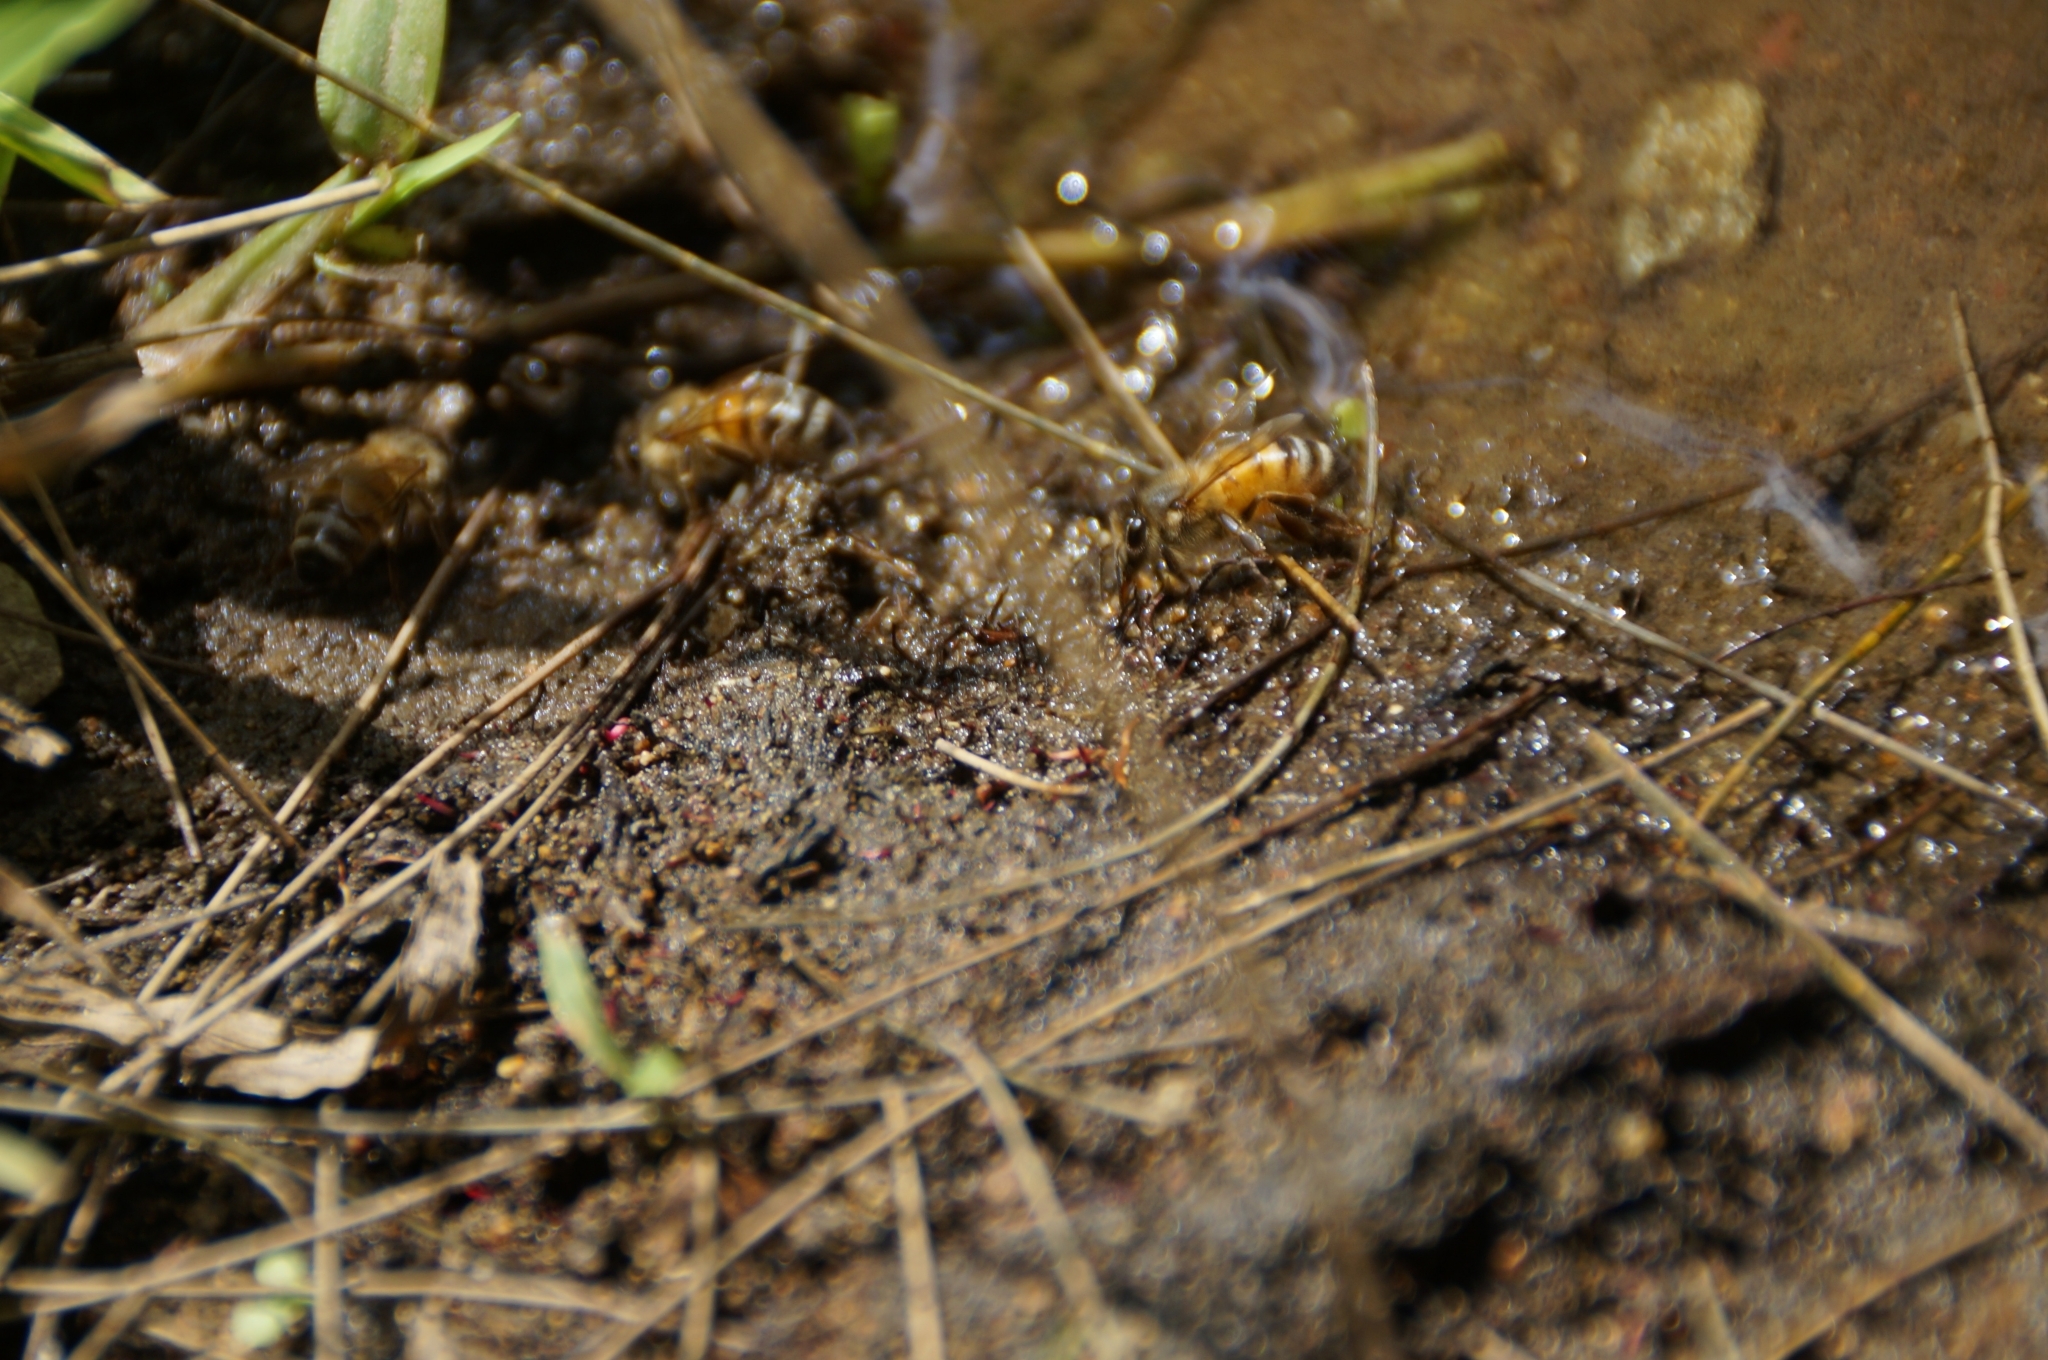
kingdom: Animalia
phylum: Arthropoda
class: Insecta
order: Hymenoptera
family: Apidae
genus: Apis
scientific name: Apis mellifera
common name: Honey bee
